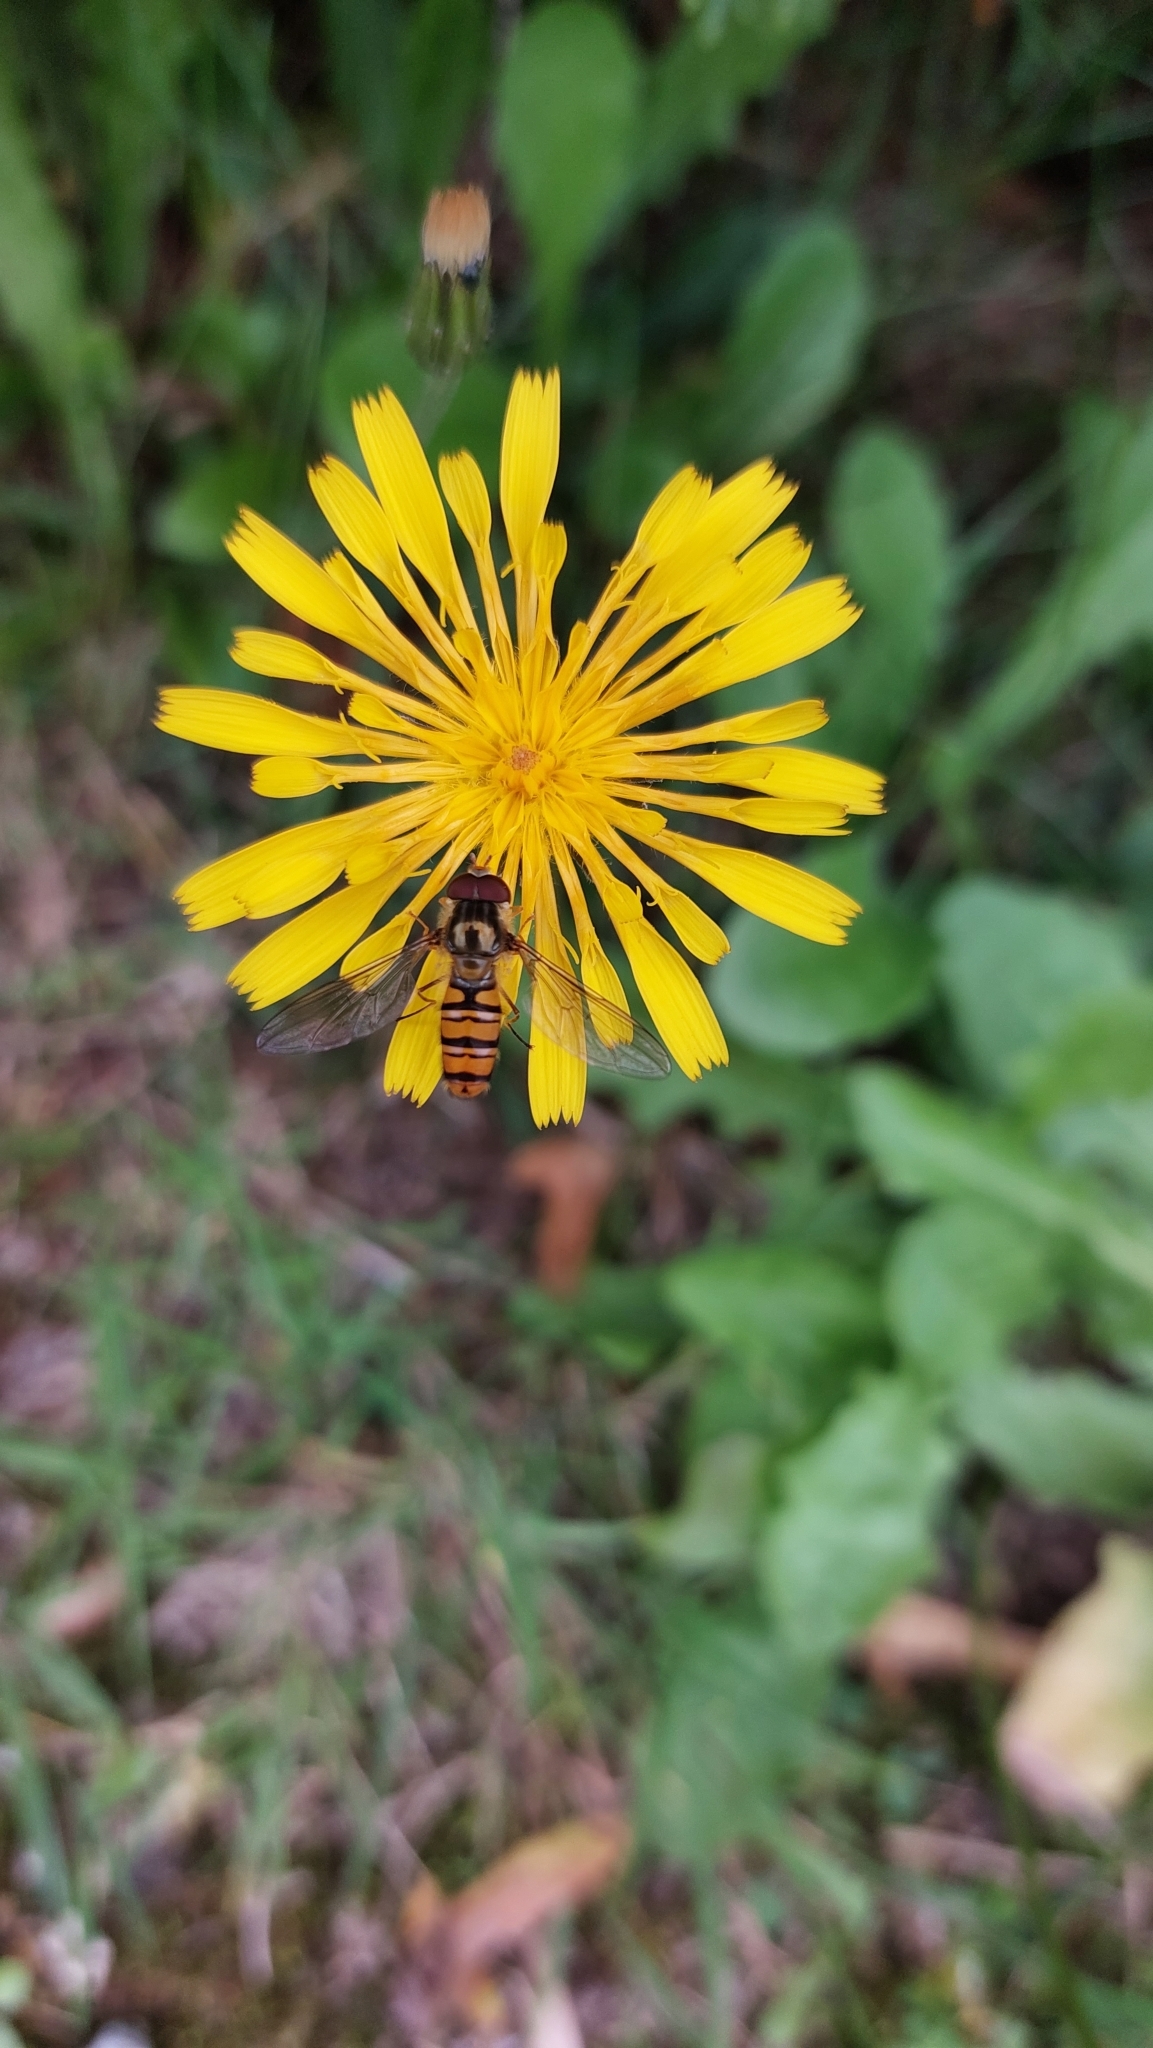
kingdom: Animalia
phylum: Arthropoda
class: Insecta
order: Diptera
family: Syrphidae
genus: Episyrphus
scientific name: Episyrphus balteatus
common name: Marmalade hoverfly
